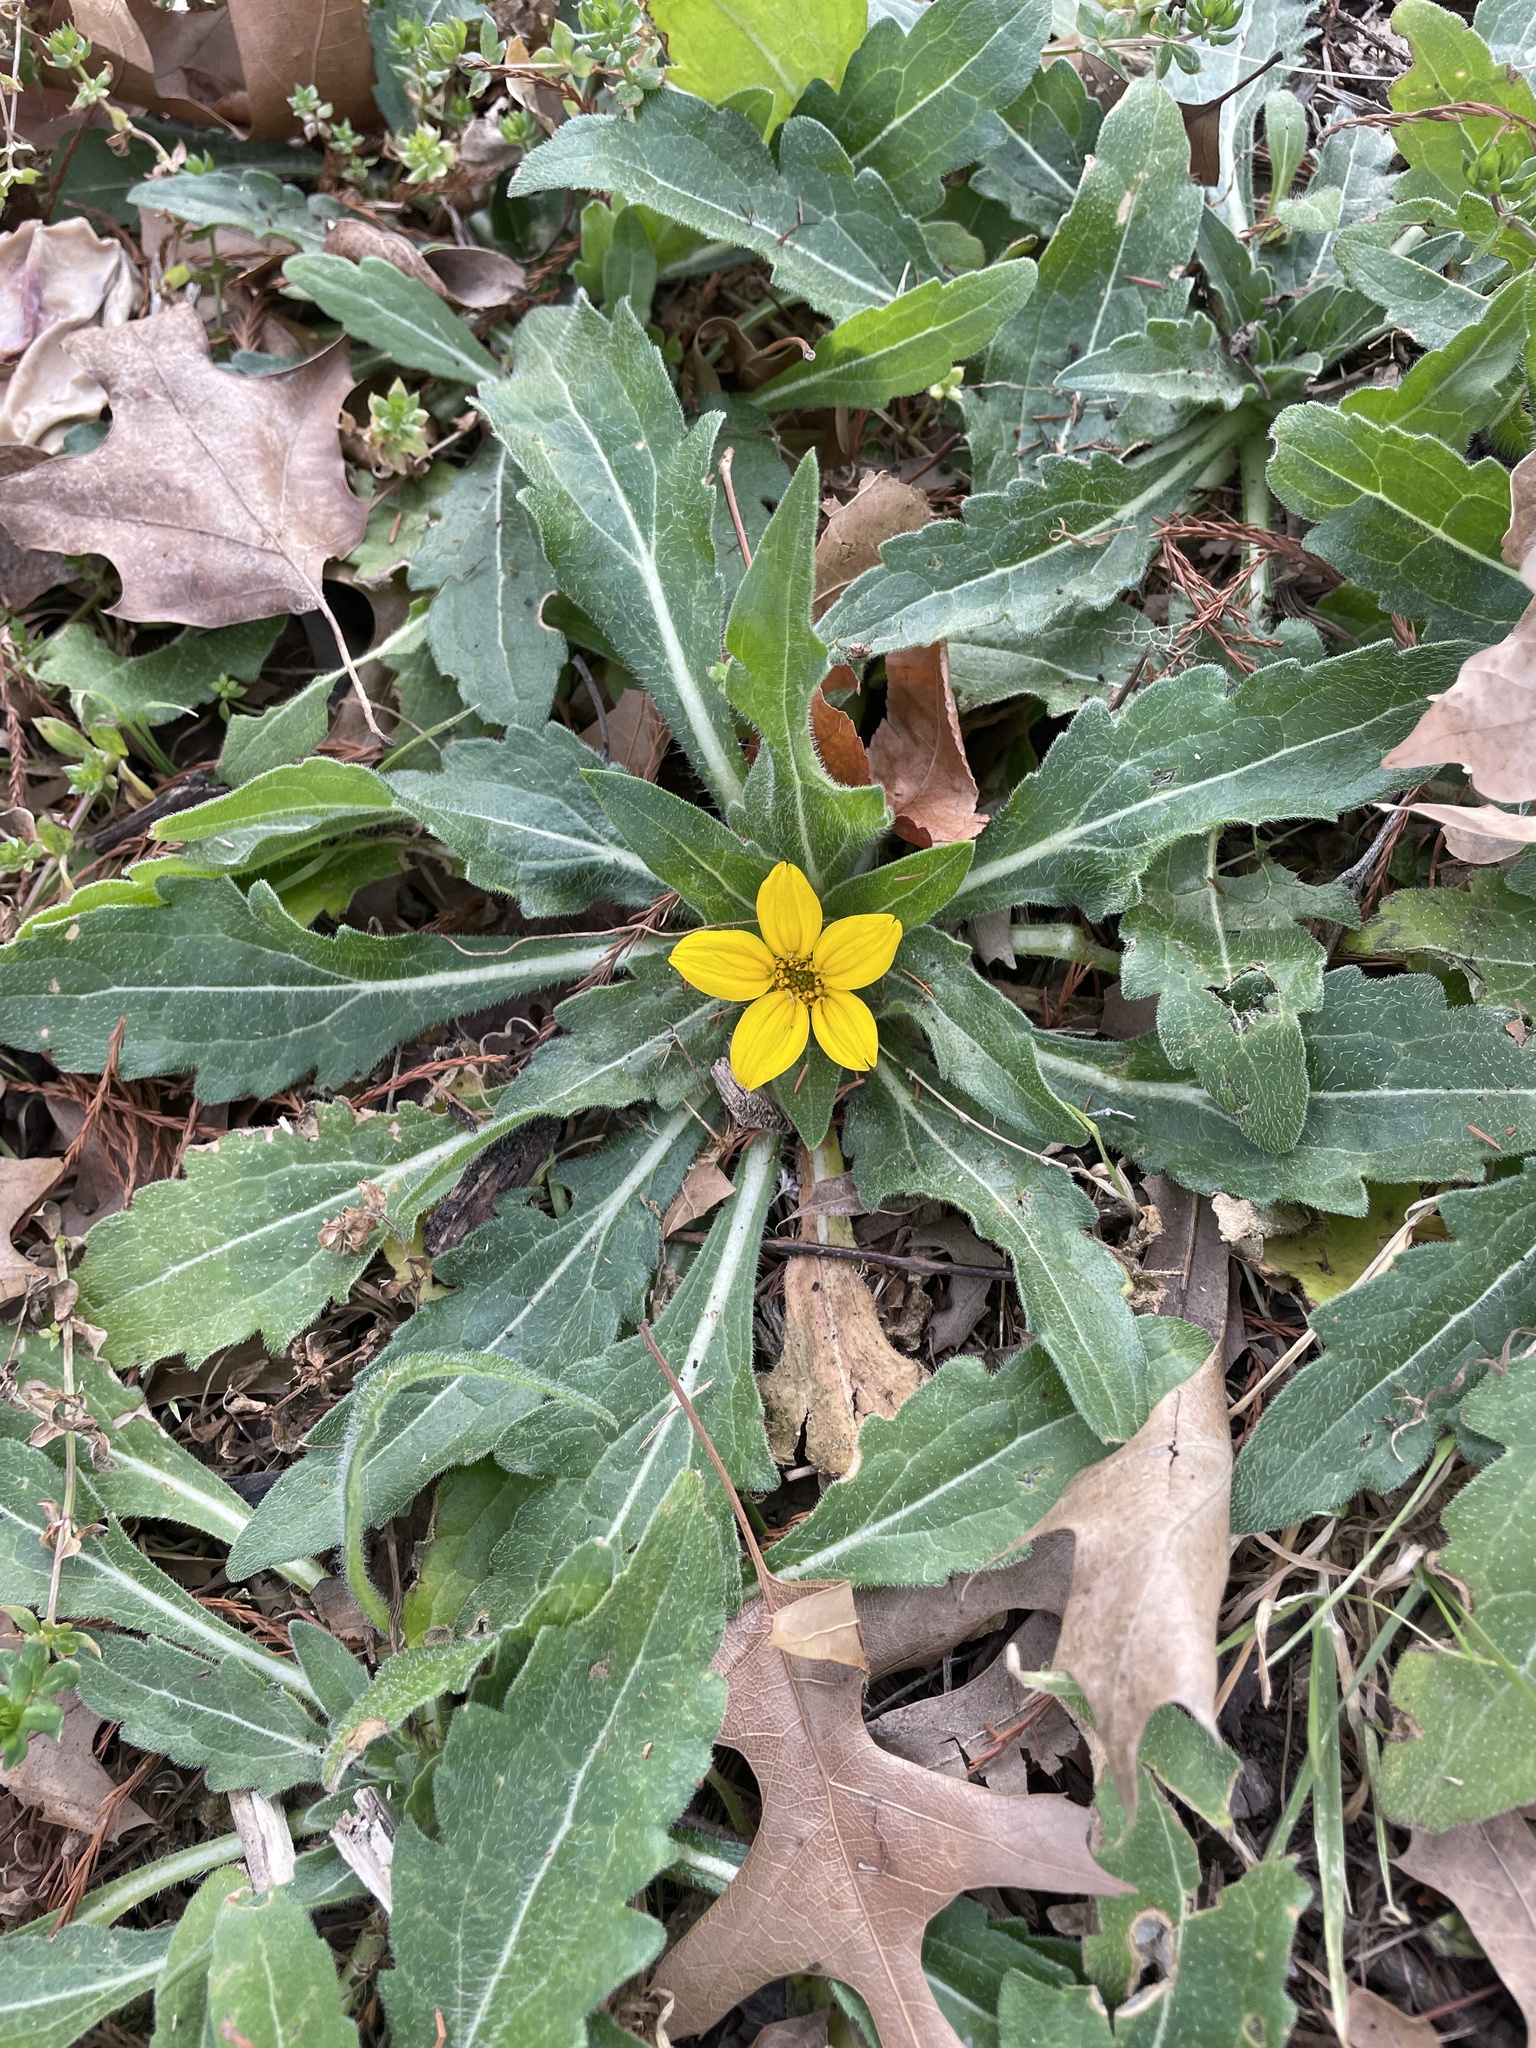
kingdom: Plantae
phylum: Tracheophyta
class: Magnoliopsida
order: Asterales
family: Asteraceae
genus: Lindheimera
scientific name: Lindheimera texana
